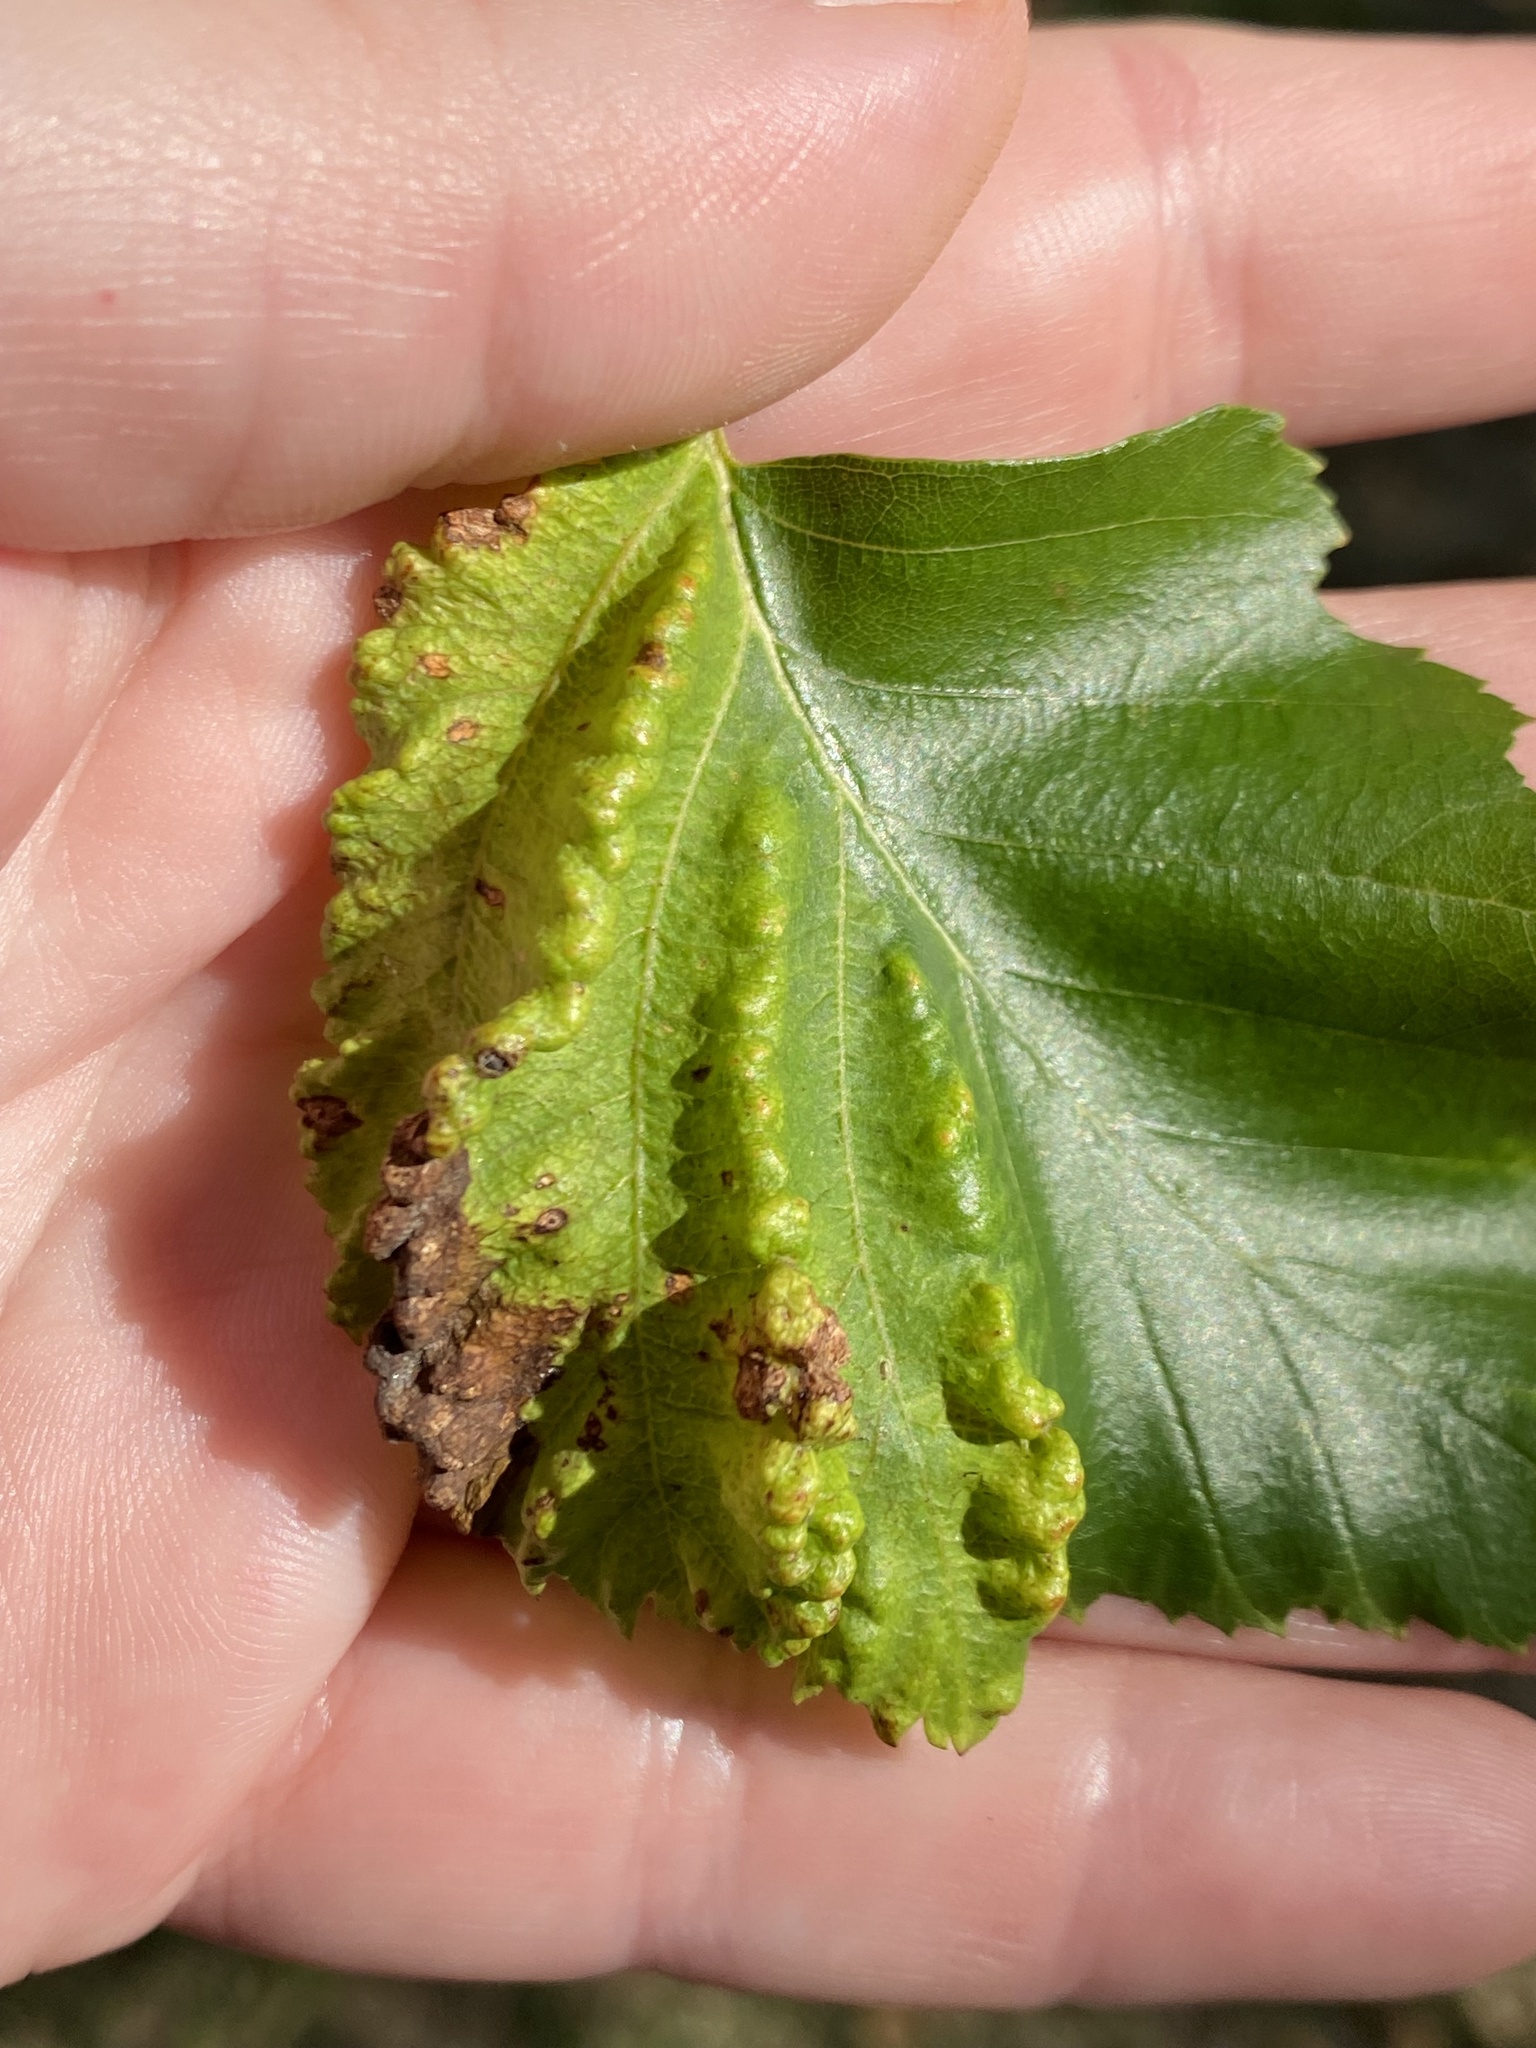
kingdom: Animalia
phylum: Arthropoda
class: Insecta
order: Hemiptera
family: Aphididae
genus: Hamamelistes
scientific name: Hamamelistes spinosus
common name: Witch hazel gall aphid
